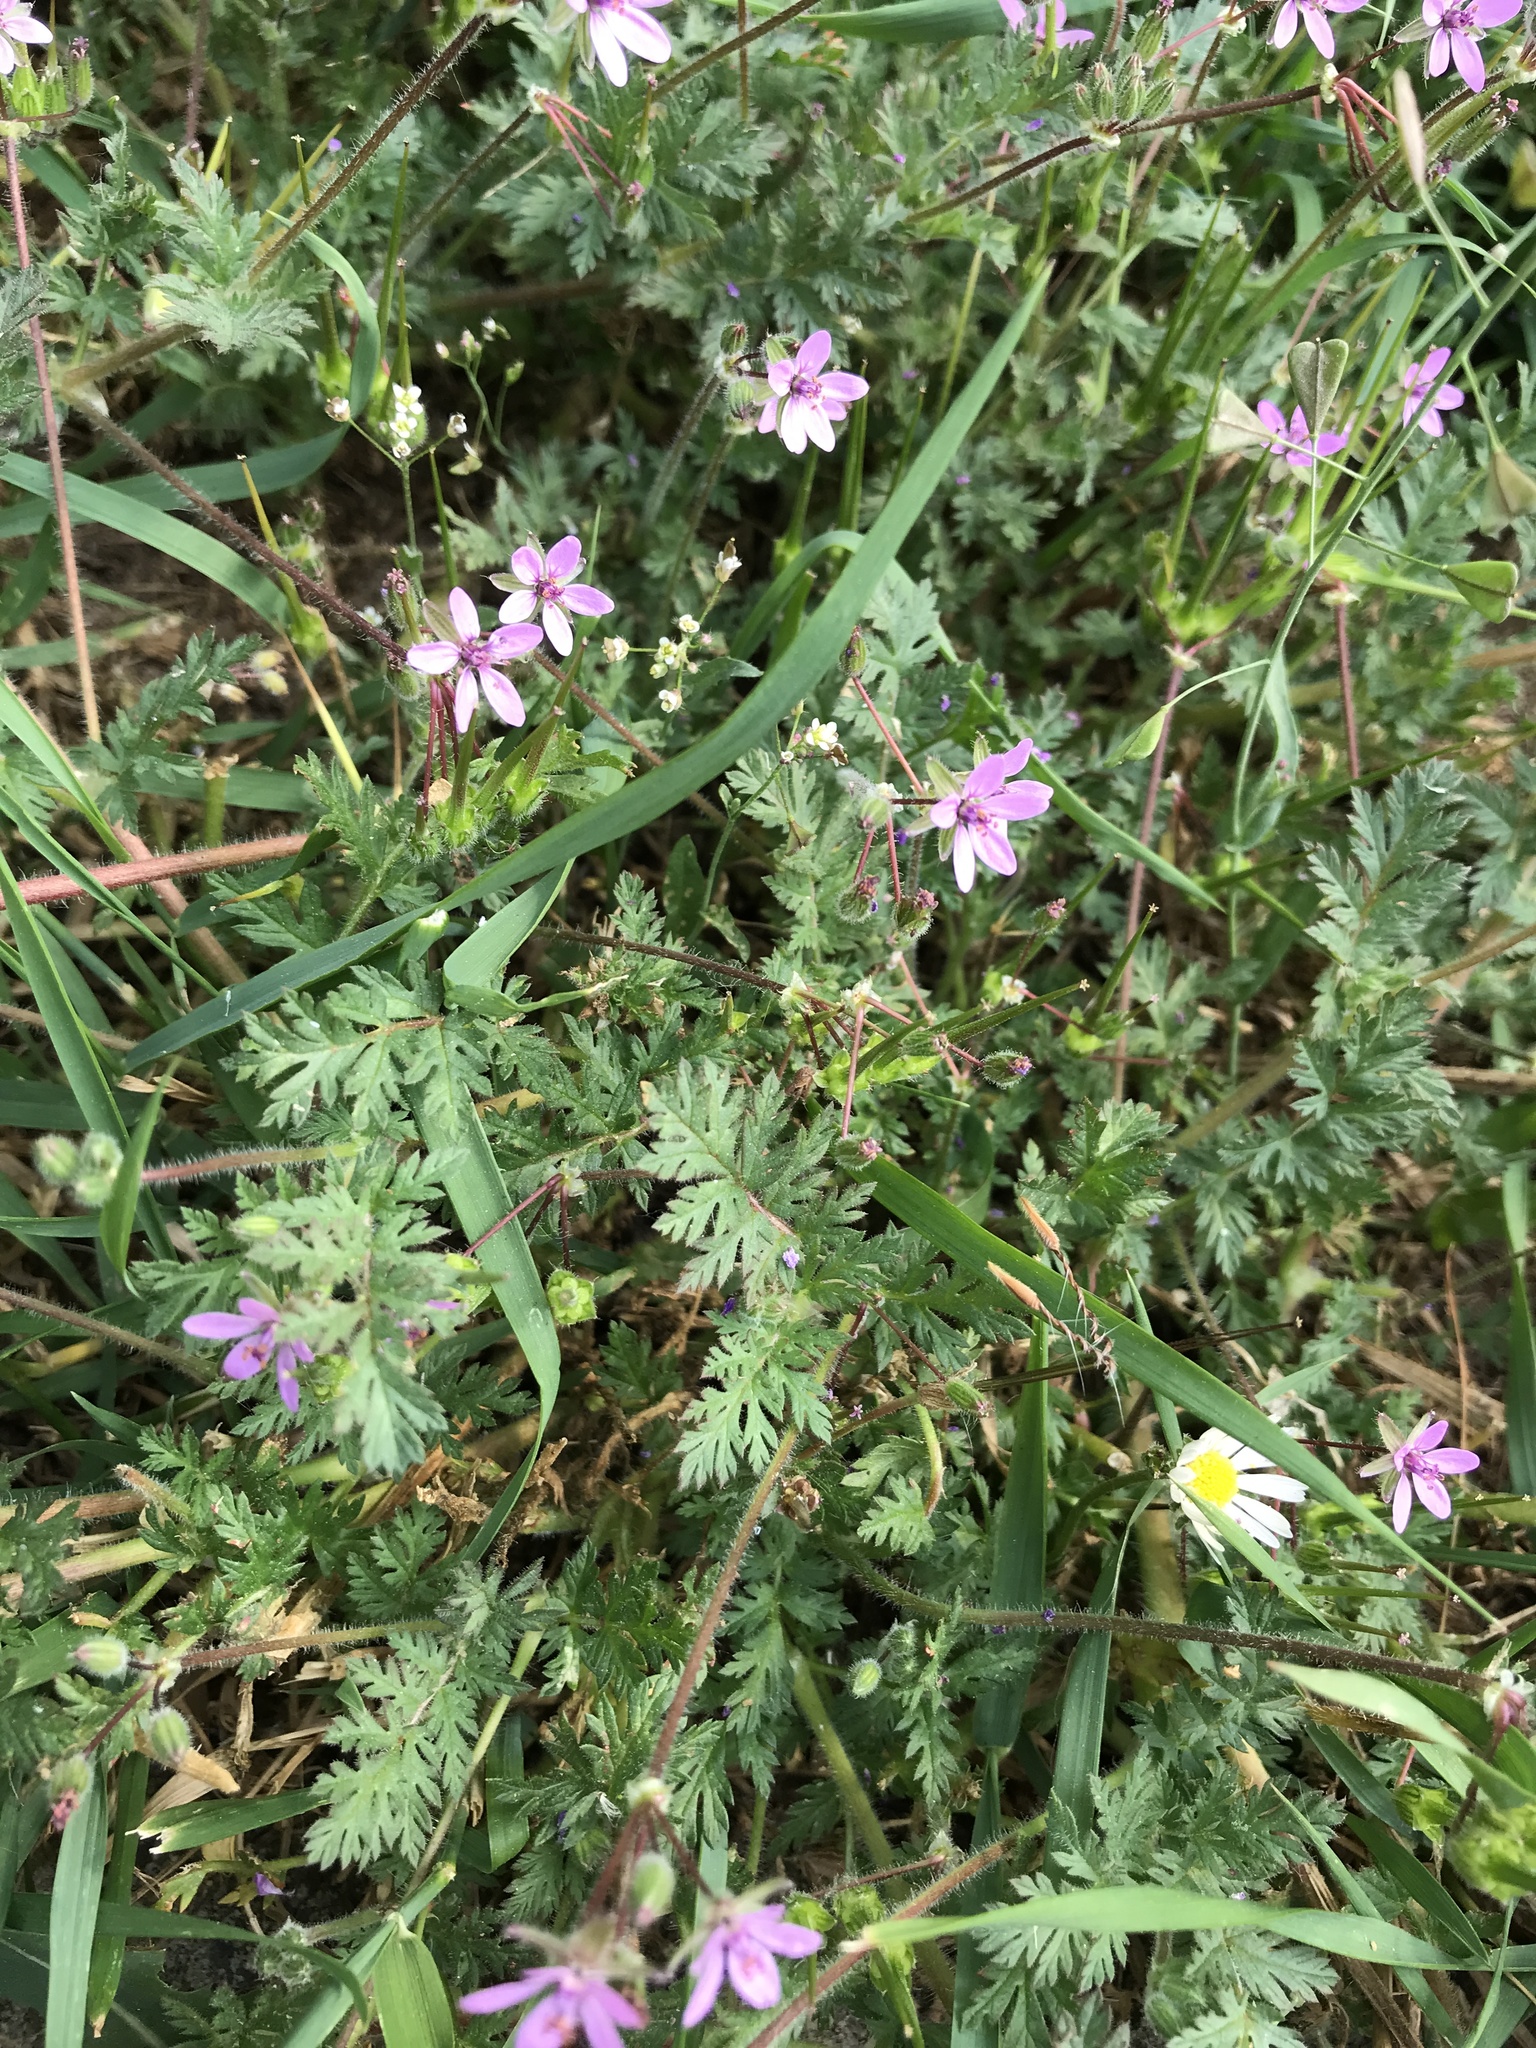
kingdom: Plantae
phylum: Tracheophyta
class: Magnoliopsida
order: Geraniales
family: Geraniaceae
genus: Erodium
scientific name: Erodium cicutarium
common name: Common stork's-bill
